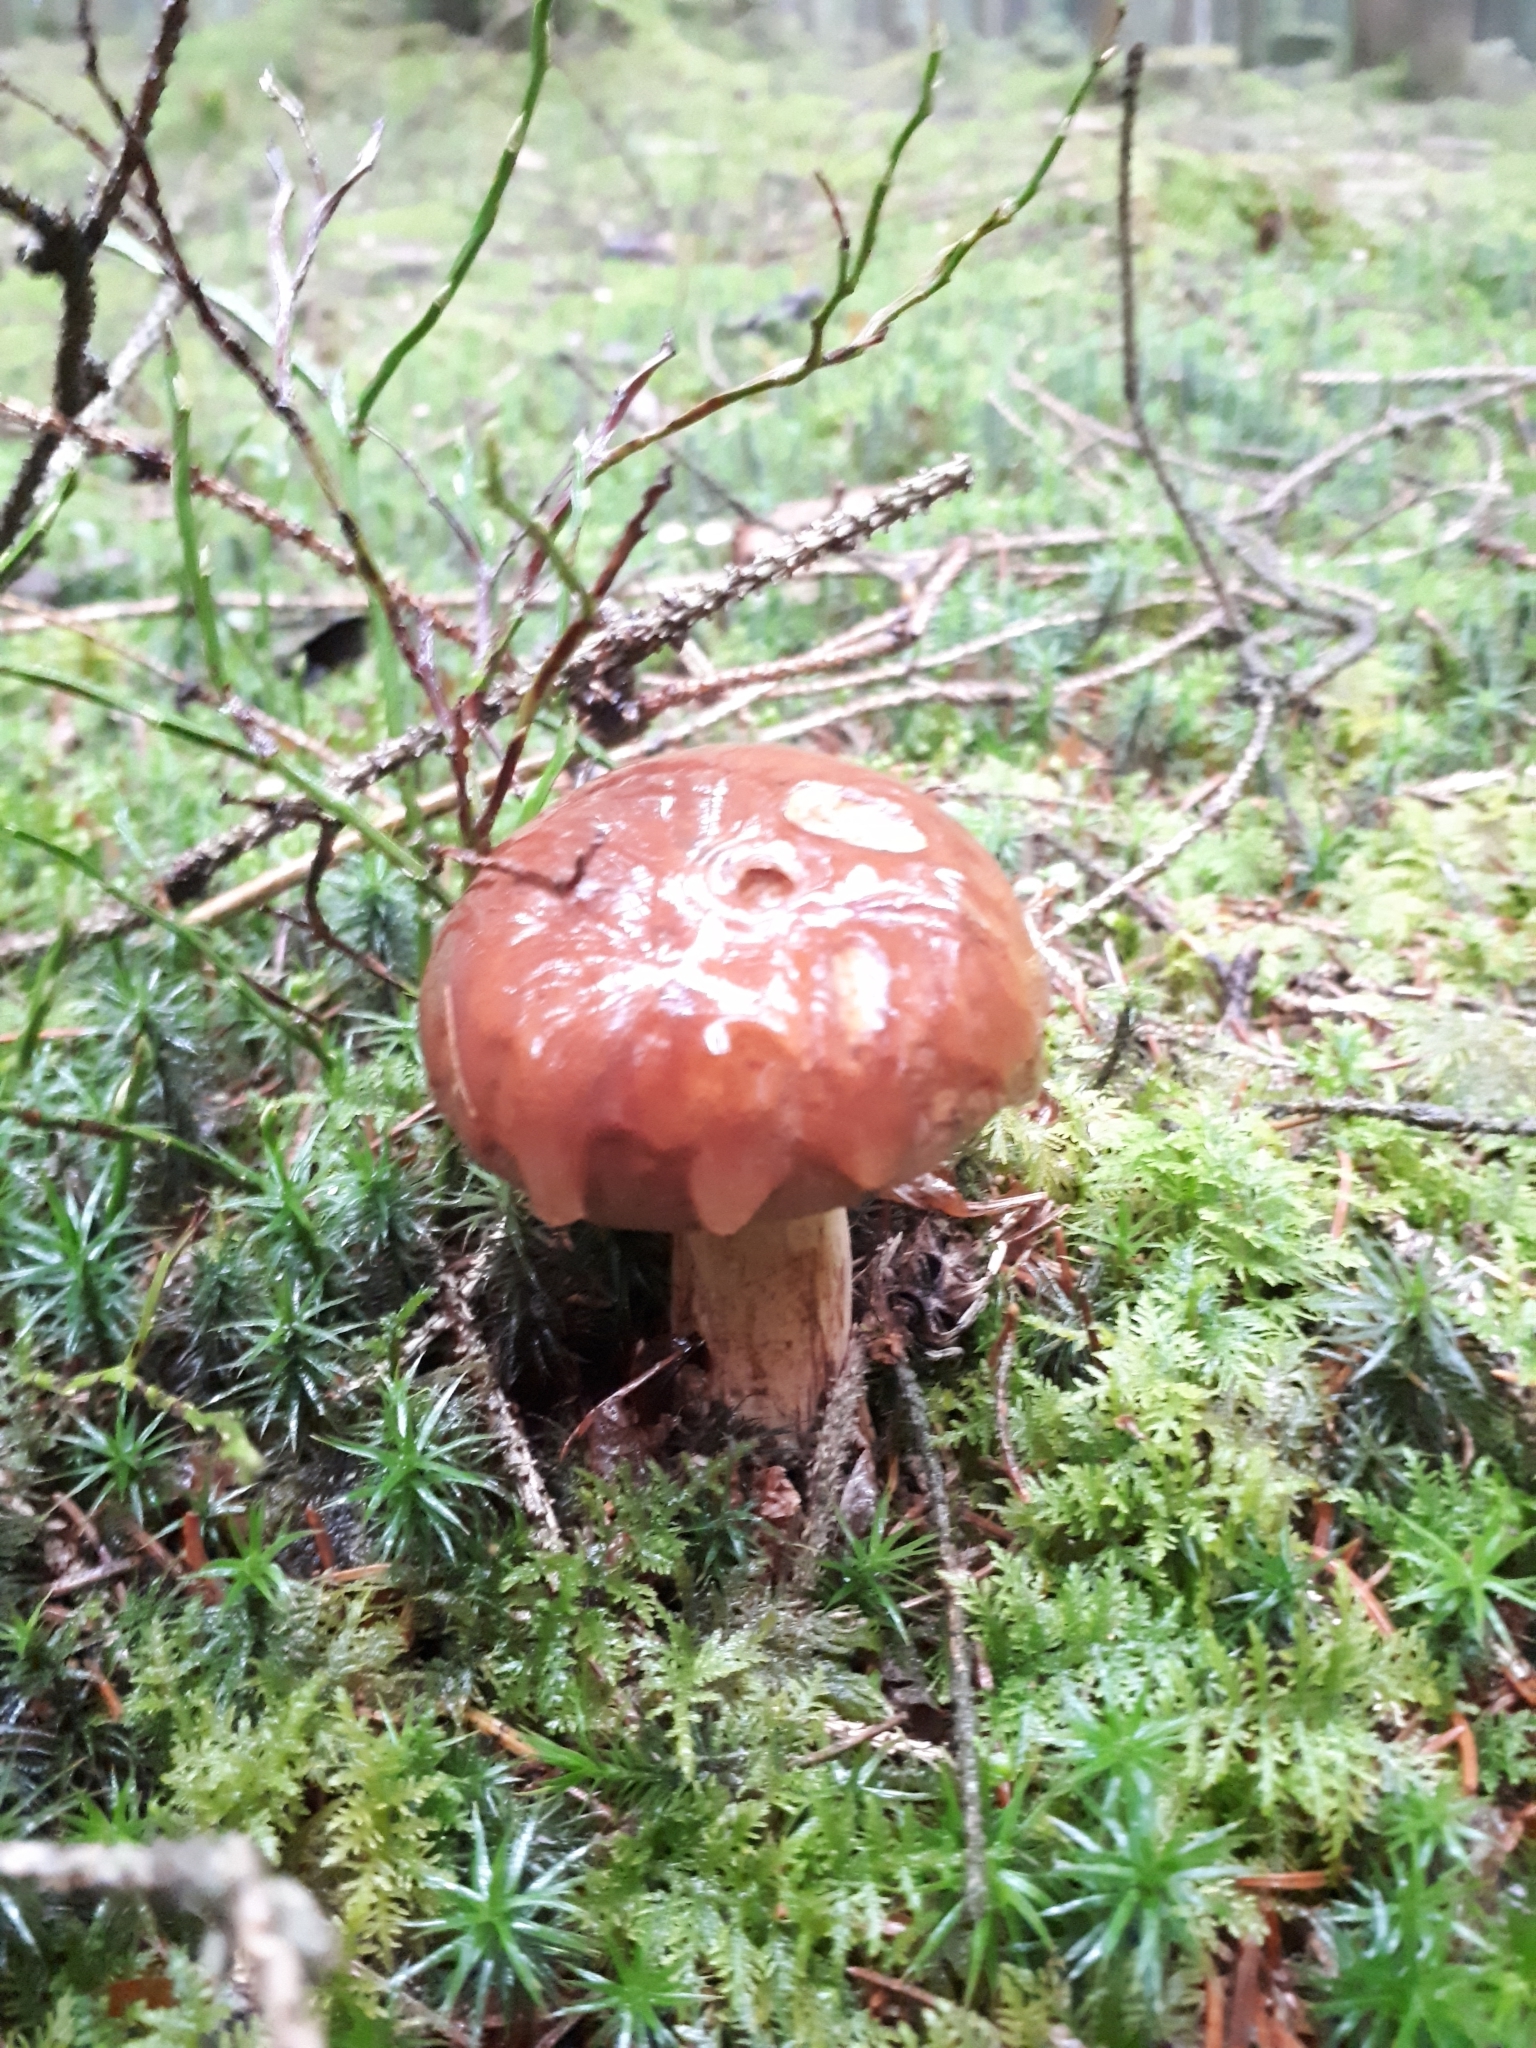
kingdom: Fungi
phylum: Basidiomycota
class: Agaricomycetes
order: Boletales
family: Boletaceae
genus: Imleria
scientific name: Imleria badia
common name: Bay bolete
